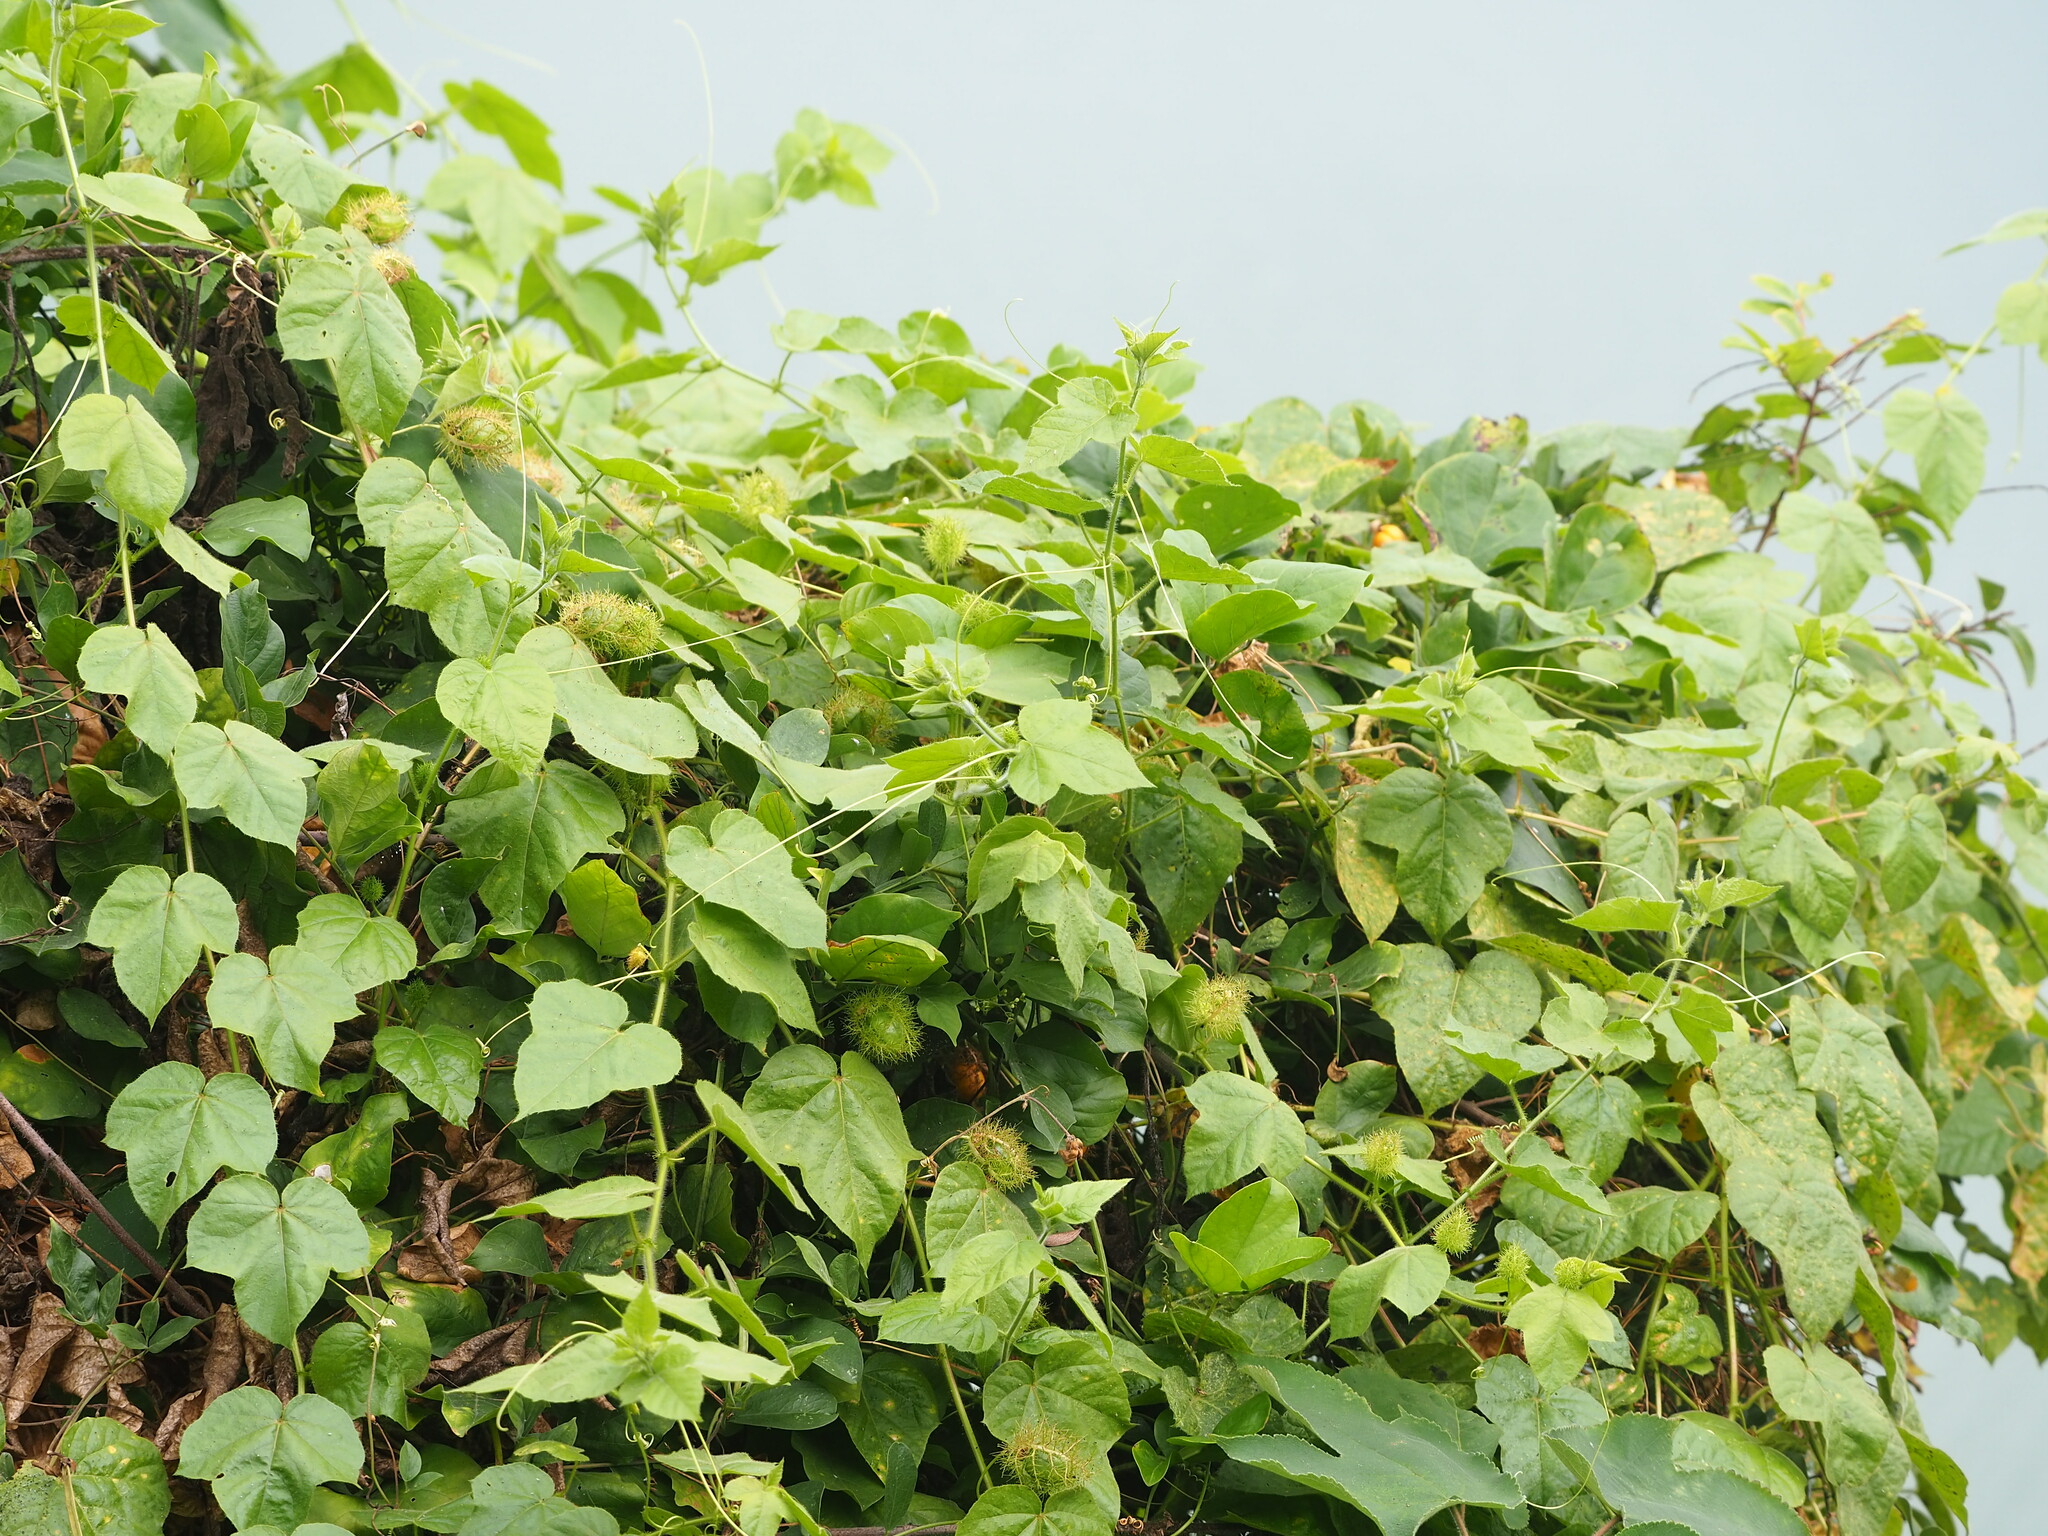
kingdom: Plantae
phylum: Tracheophyta
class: Magnoliopsida
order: Malpighiales
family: Passifloraceae
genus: Passiflora
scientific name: Passiflora vesicaria
